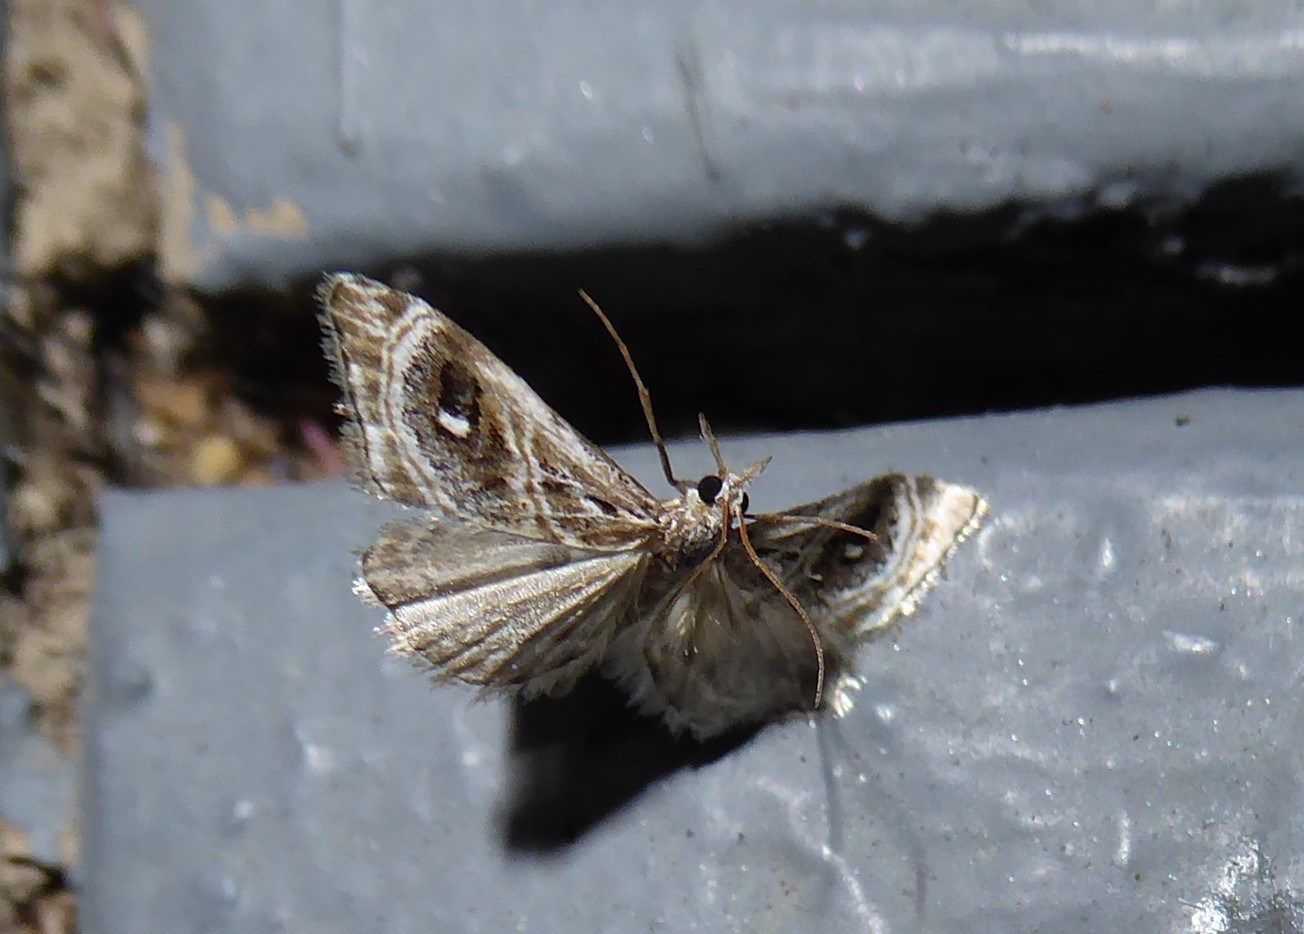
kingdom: Animalia
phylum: Arthropoda
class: Insecta
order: Lepidoptera
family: Crambidae
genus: Gadira
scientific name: Gadira acerella
